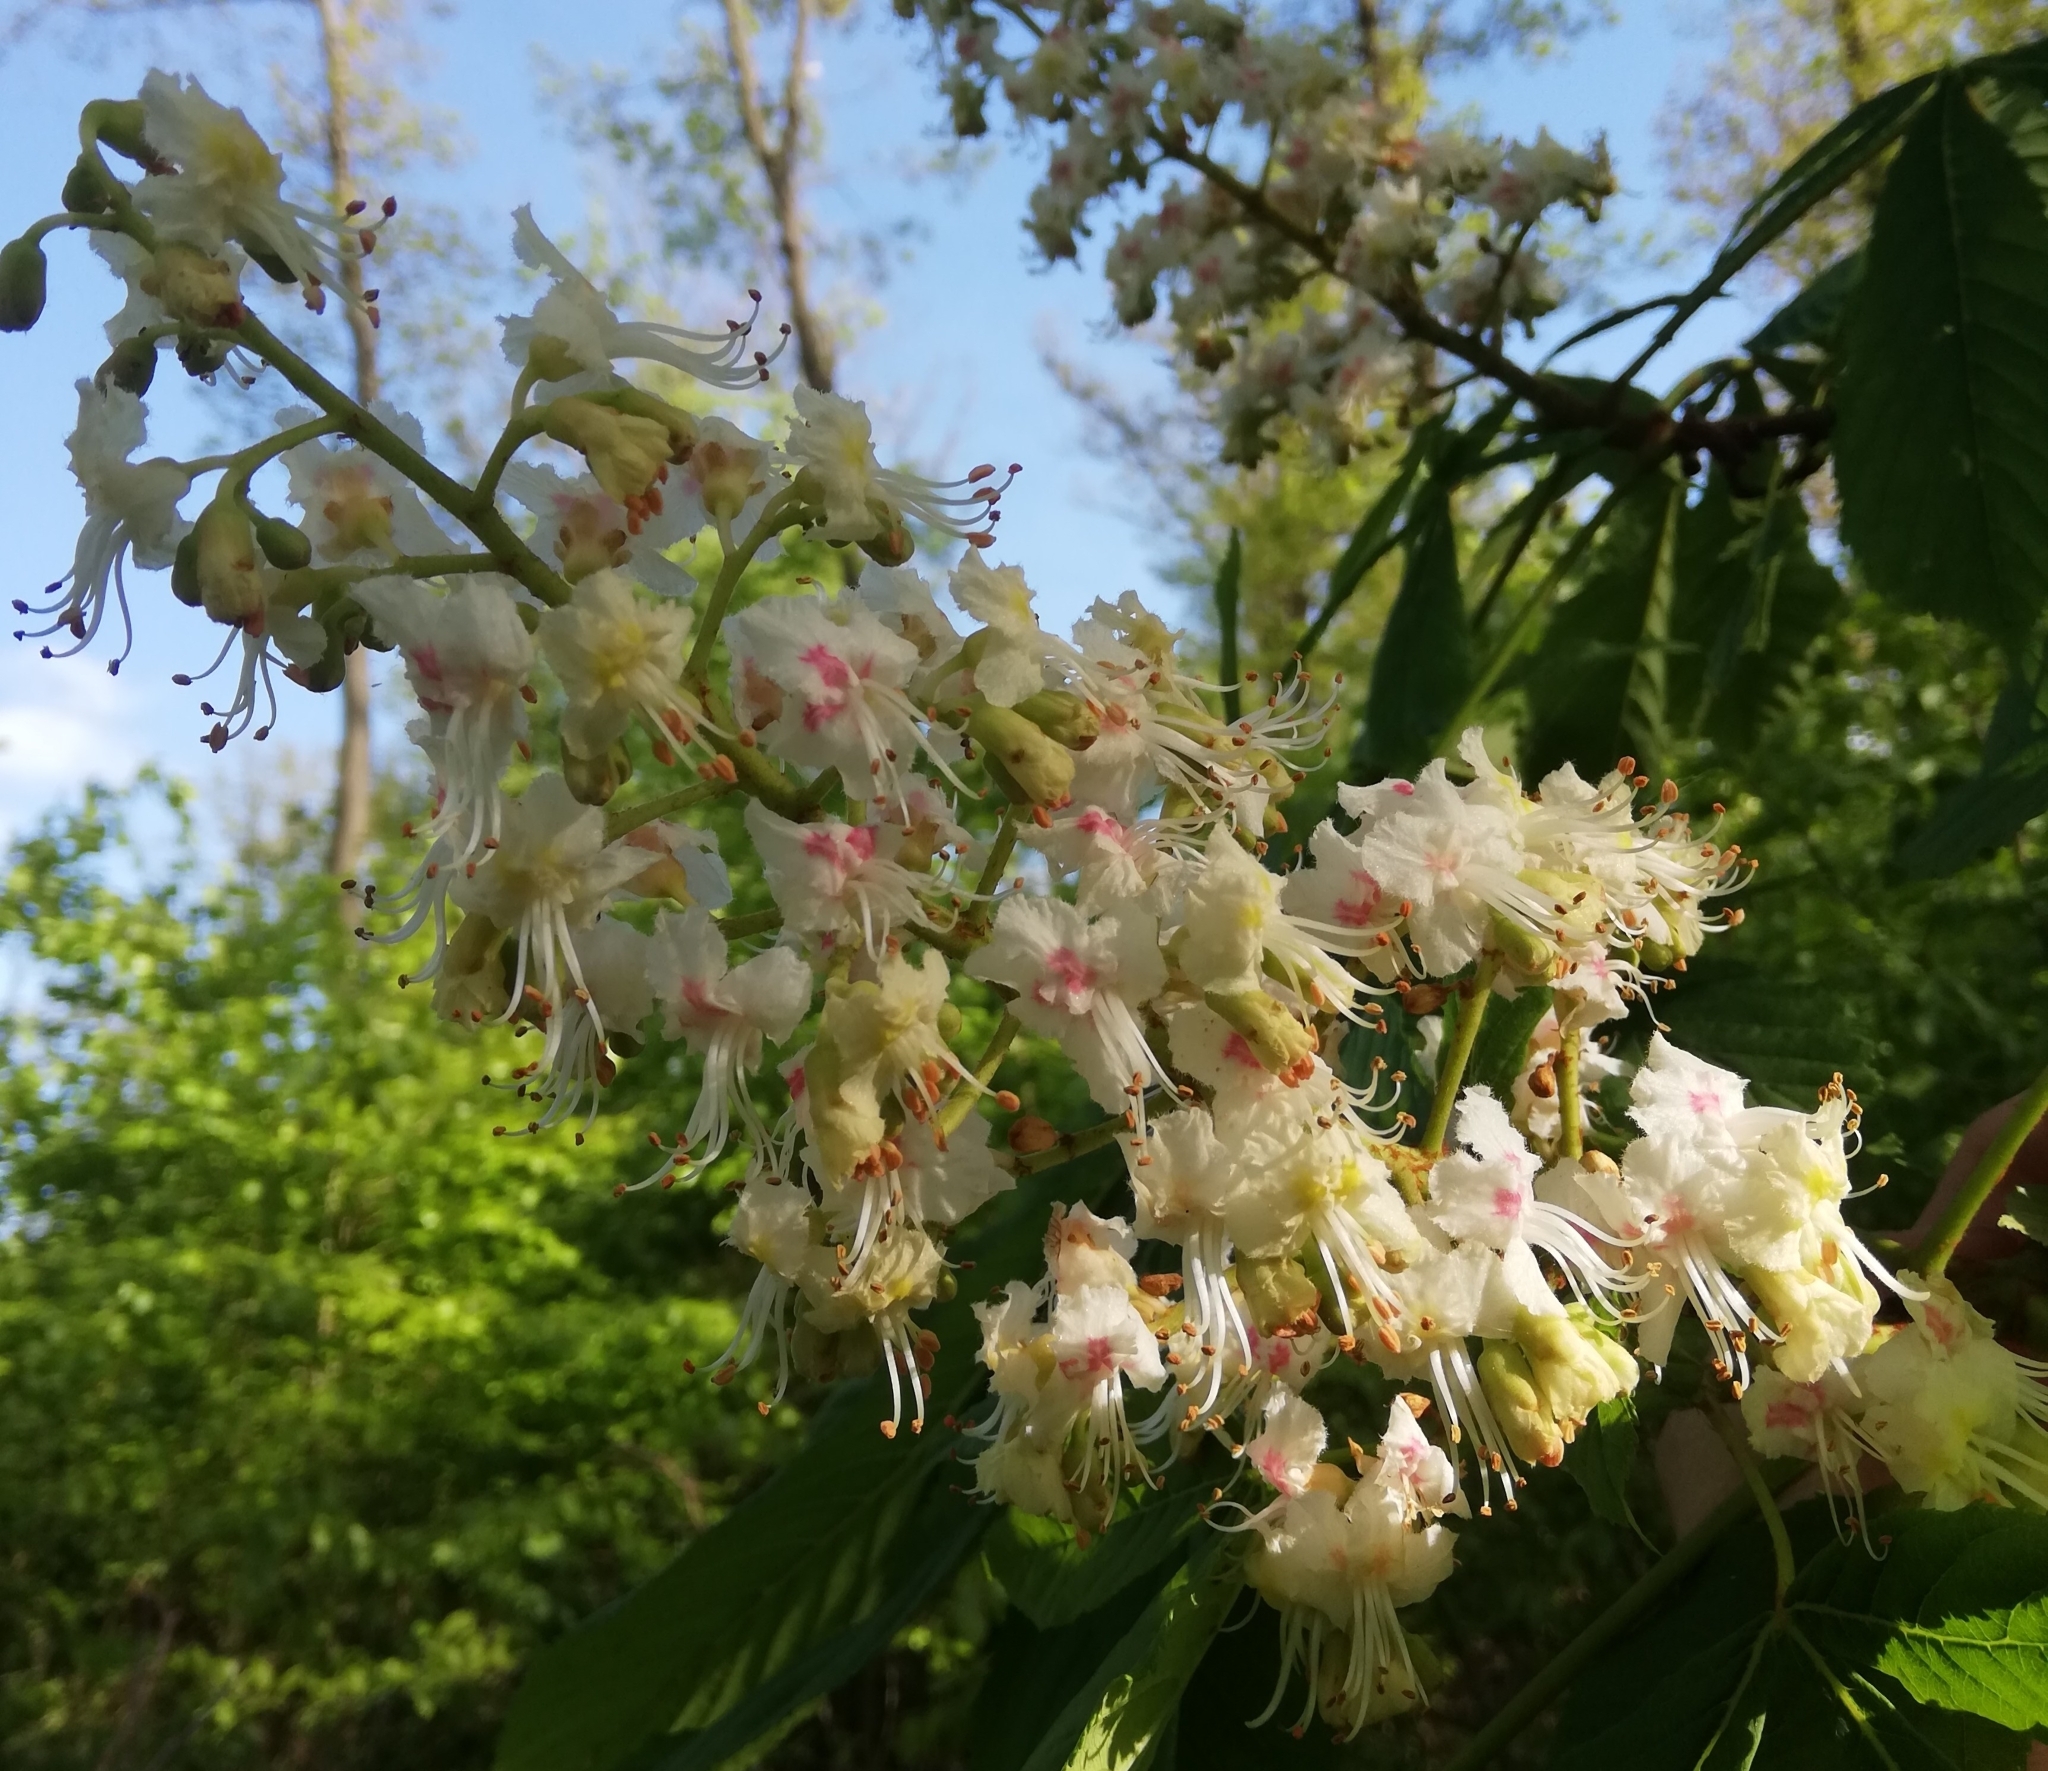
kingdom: Plantae
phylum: Tracheophyta
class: Magnoliopsida
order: Sapindales
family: Sapindaceae
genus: Aesculus
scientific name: Aesculus hippocastanum
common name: Horse-chestnut
